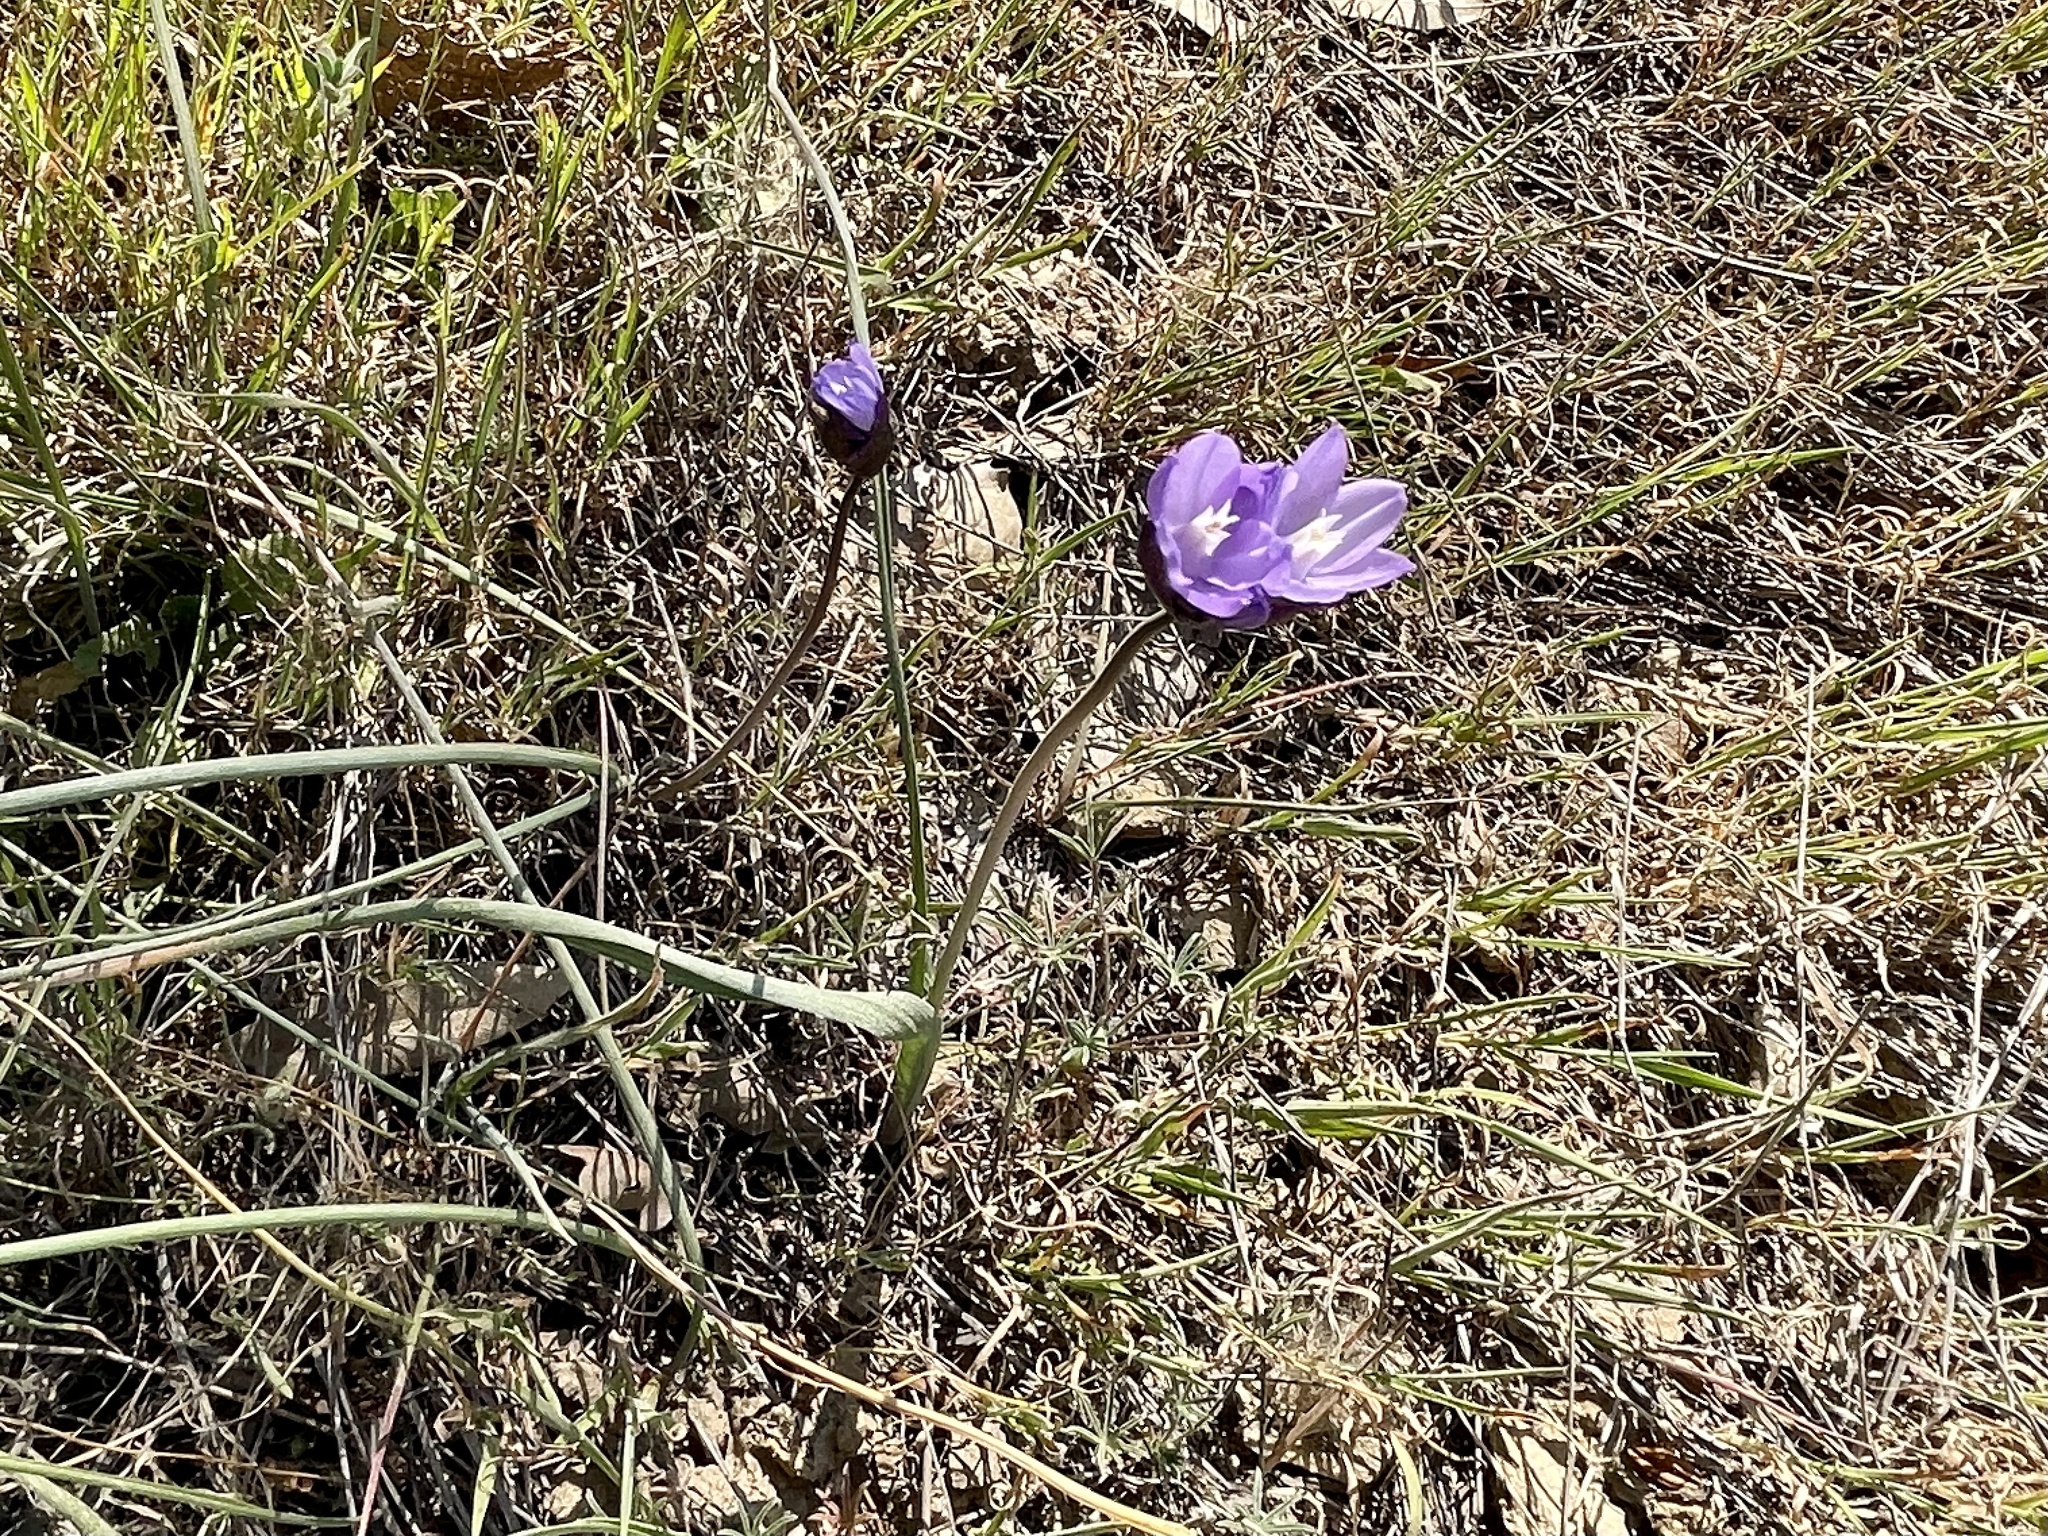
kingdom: Plantae
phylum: Tracheophyta
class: Liliopsida
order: Asparagales
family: Asparagaceae
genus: Dipterostemon
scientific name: Dipterostemon capitatus
